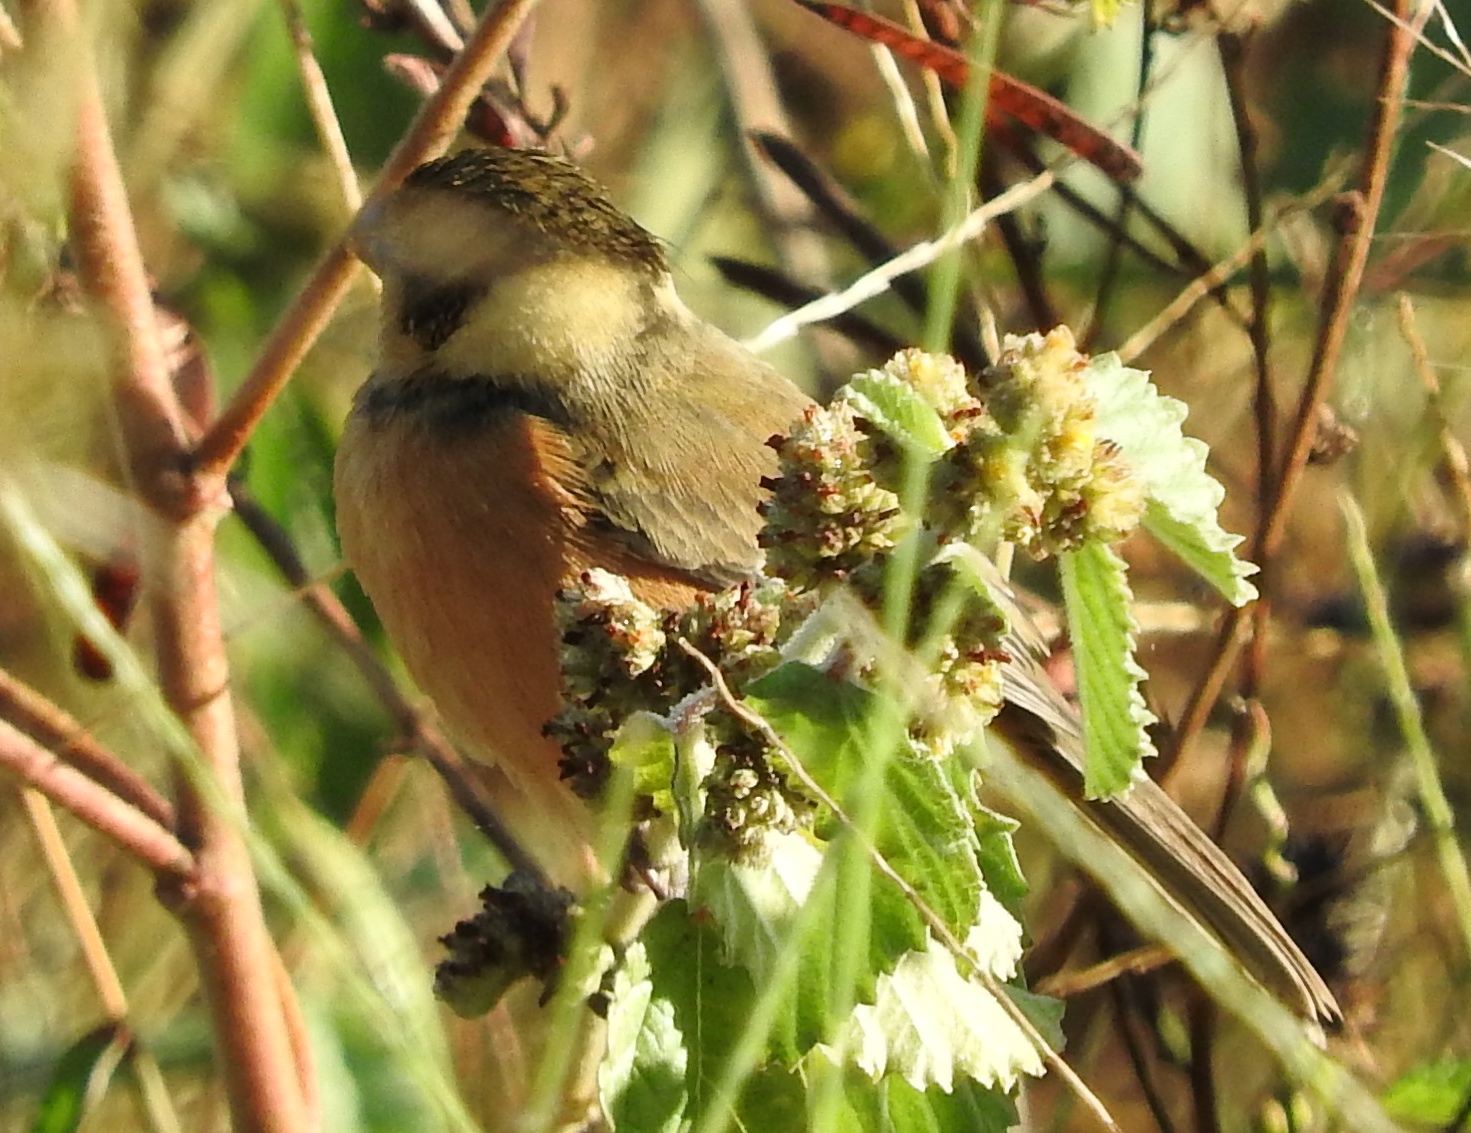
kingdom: Animalia
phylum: Chordata
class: Aves
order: Passeriformes
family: Thraupidae
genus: Sporophila
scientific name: Sporophila torqueola
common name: White-collared seedeater
